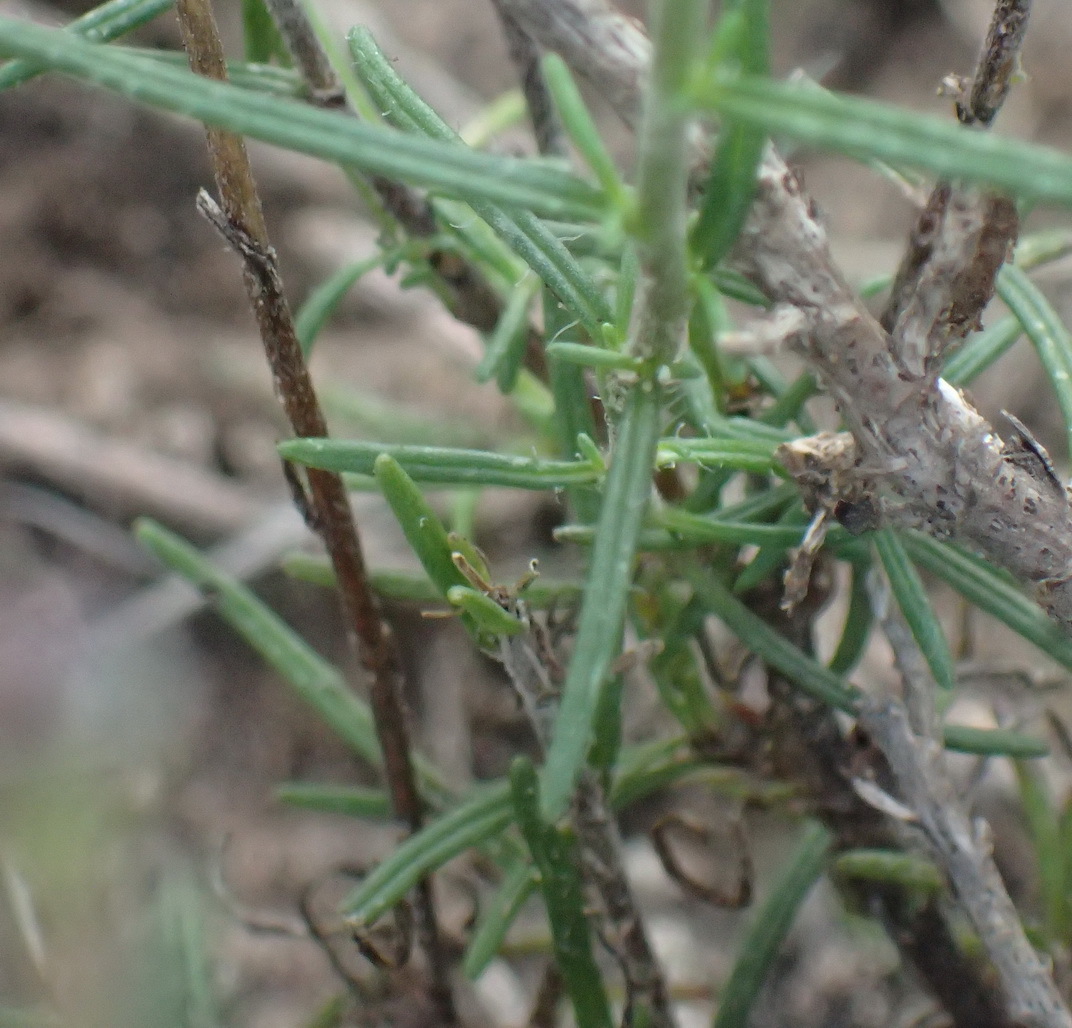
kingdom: Plantae
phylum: Tracheophyta
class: Magnoliopsida
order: Lamiales
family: Scrophulariaceae
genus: Zaluzianskya
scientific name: Zaluzianskya capensis
